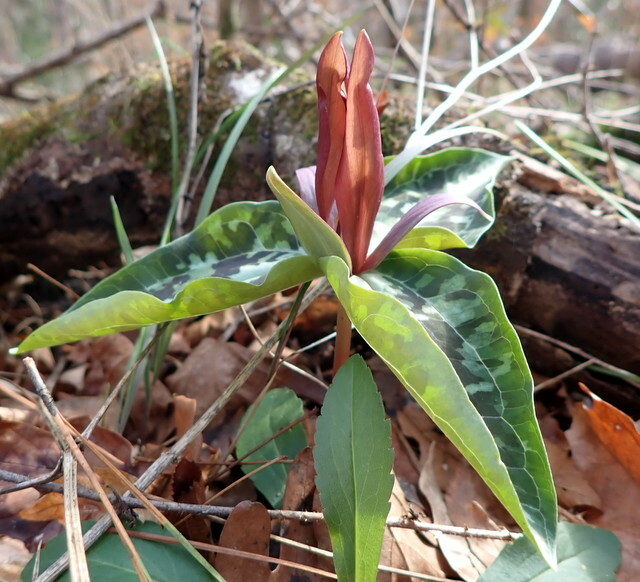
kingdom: Plantae
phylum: Tracheophyta
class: Liliopsida
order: Liliales
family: Melanthiaceae
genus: Trillium
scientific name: Trillium underwoodii
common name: Longbract wakerobin
